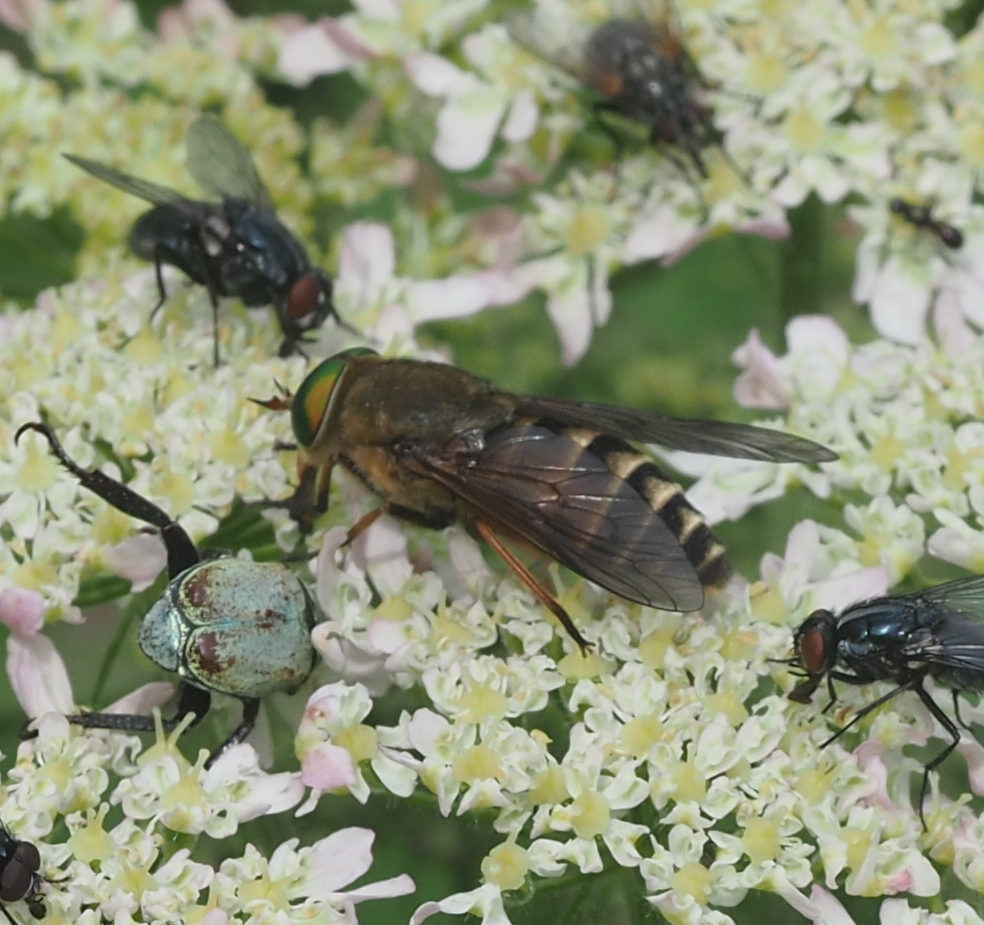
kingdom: Animalia
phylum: Arthropoda
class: Insecta
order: Diptera
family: Tabanidae
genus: Philipomyia
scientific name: Philipomyia aprica
